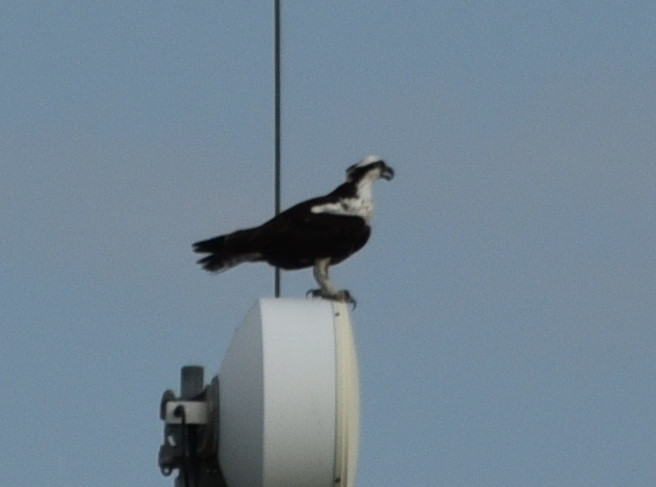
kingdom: Animalia
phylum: Chordata
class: Aves
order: Accipitriformes
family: Pandionidae
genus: Pandion
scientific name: Pandion haliaetus
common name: Osprey
